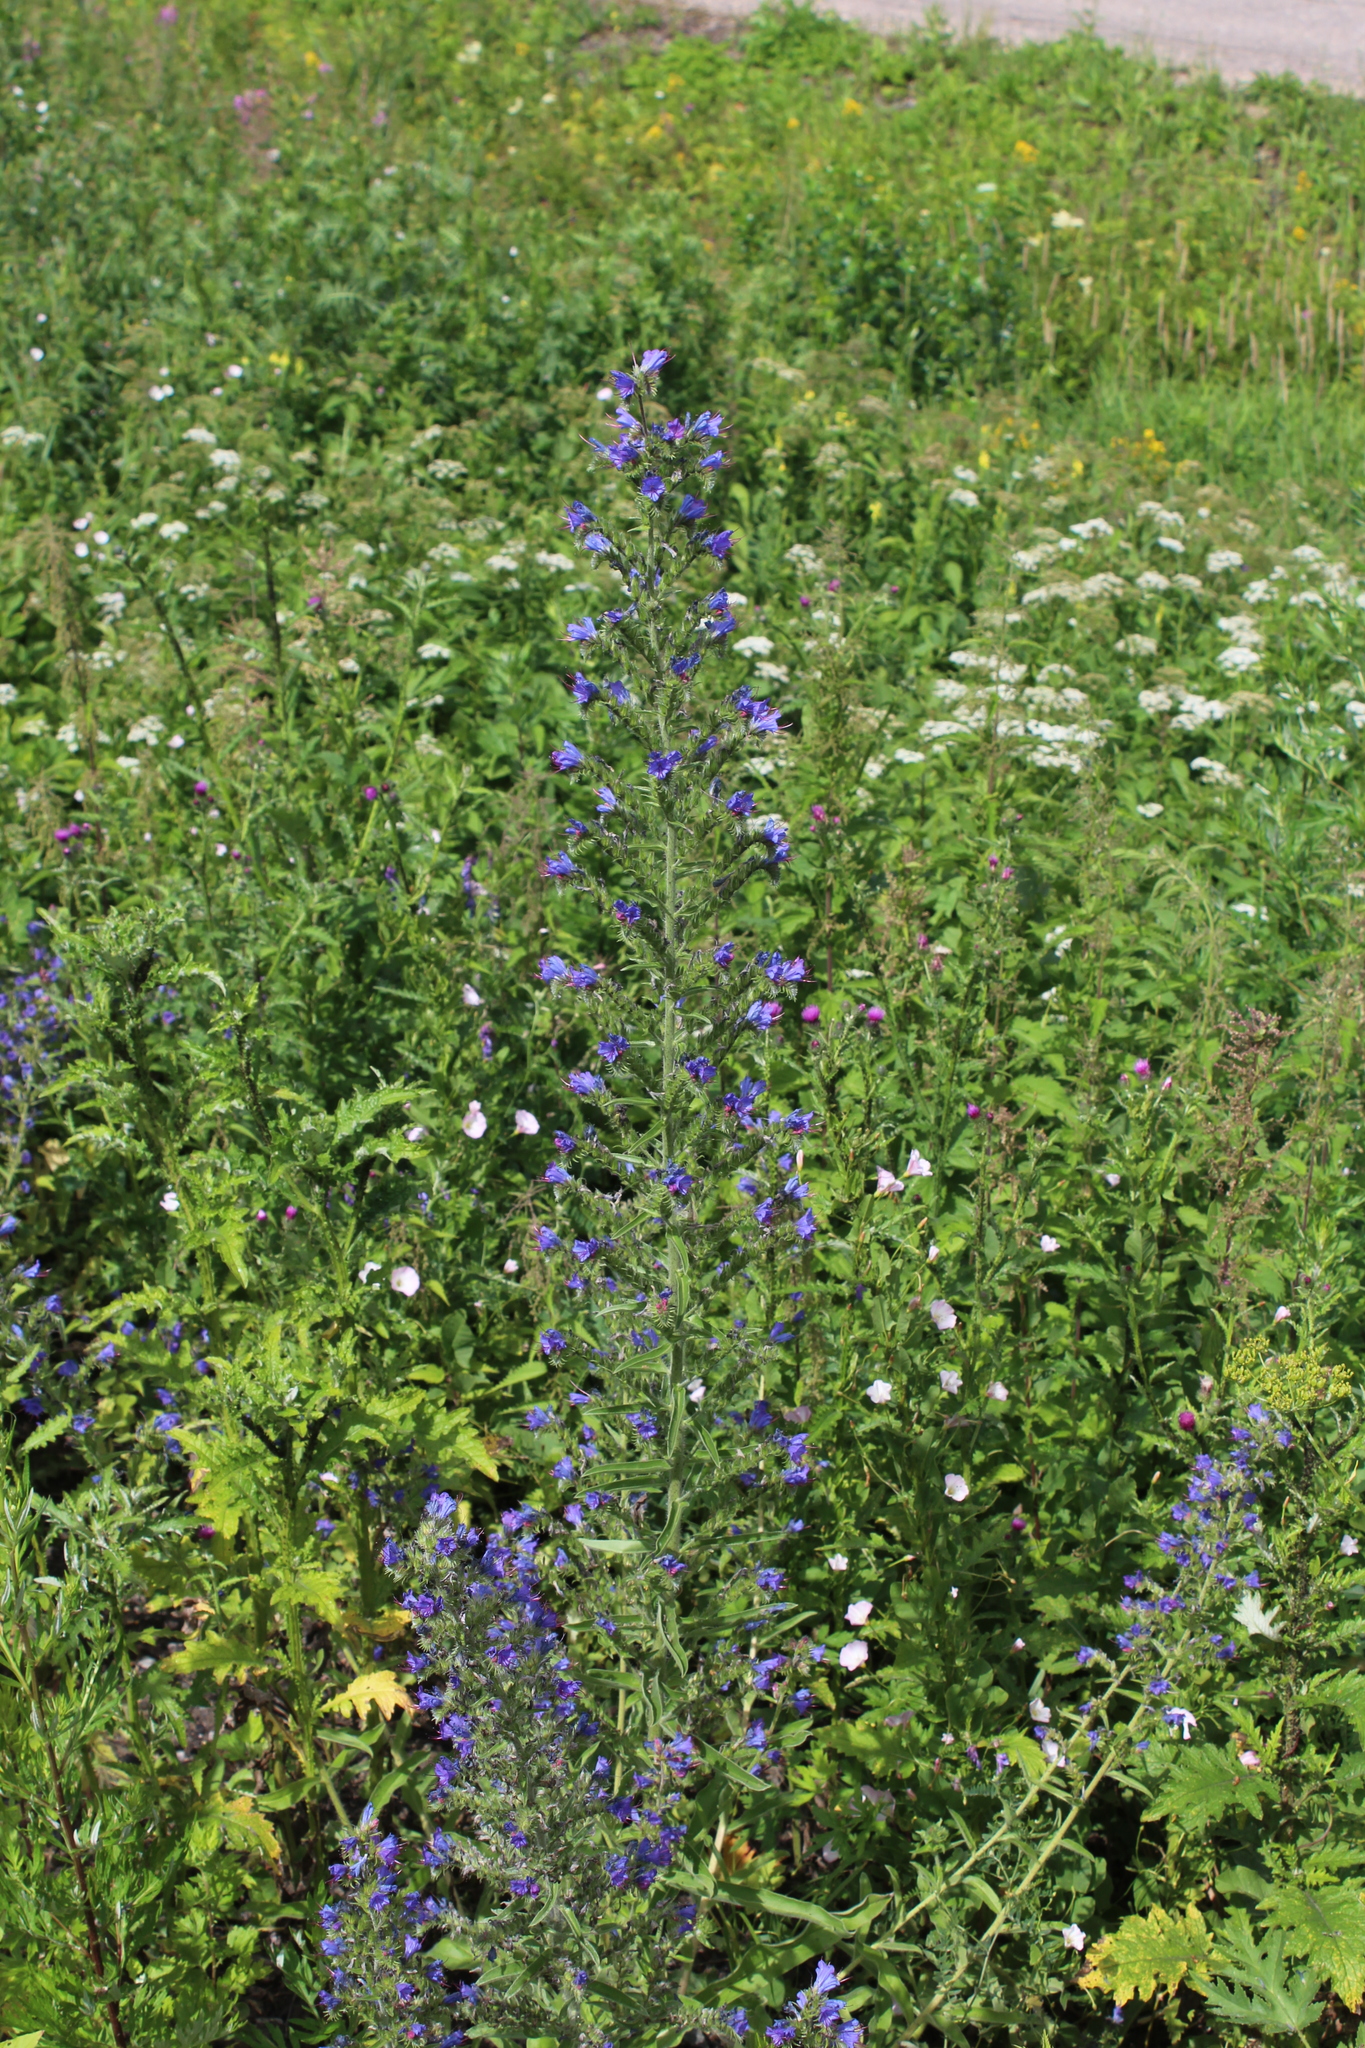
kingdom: Plantae
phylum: Tracheophyta
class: Magnoliopsida
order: Boraginales
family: Boraginaceae
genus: Echium
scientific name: Echium vulgare
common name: Common viper's bugloss
